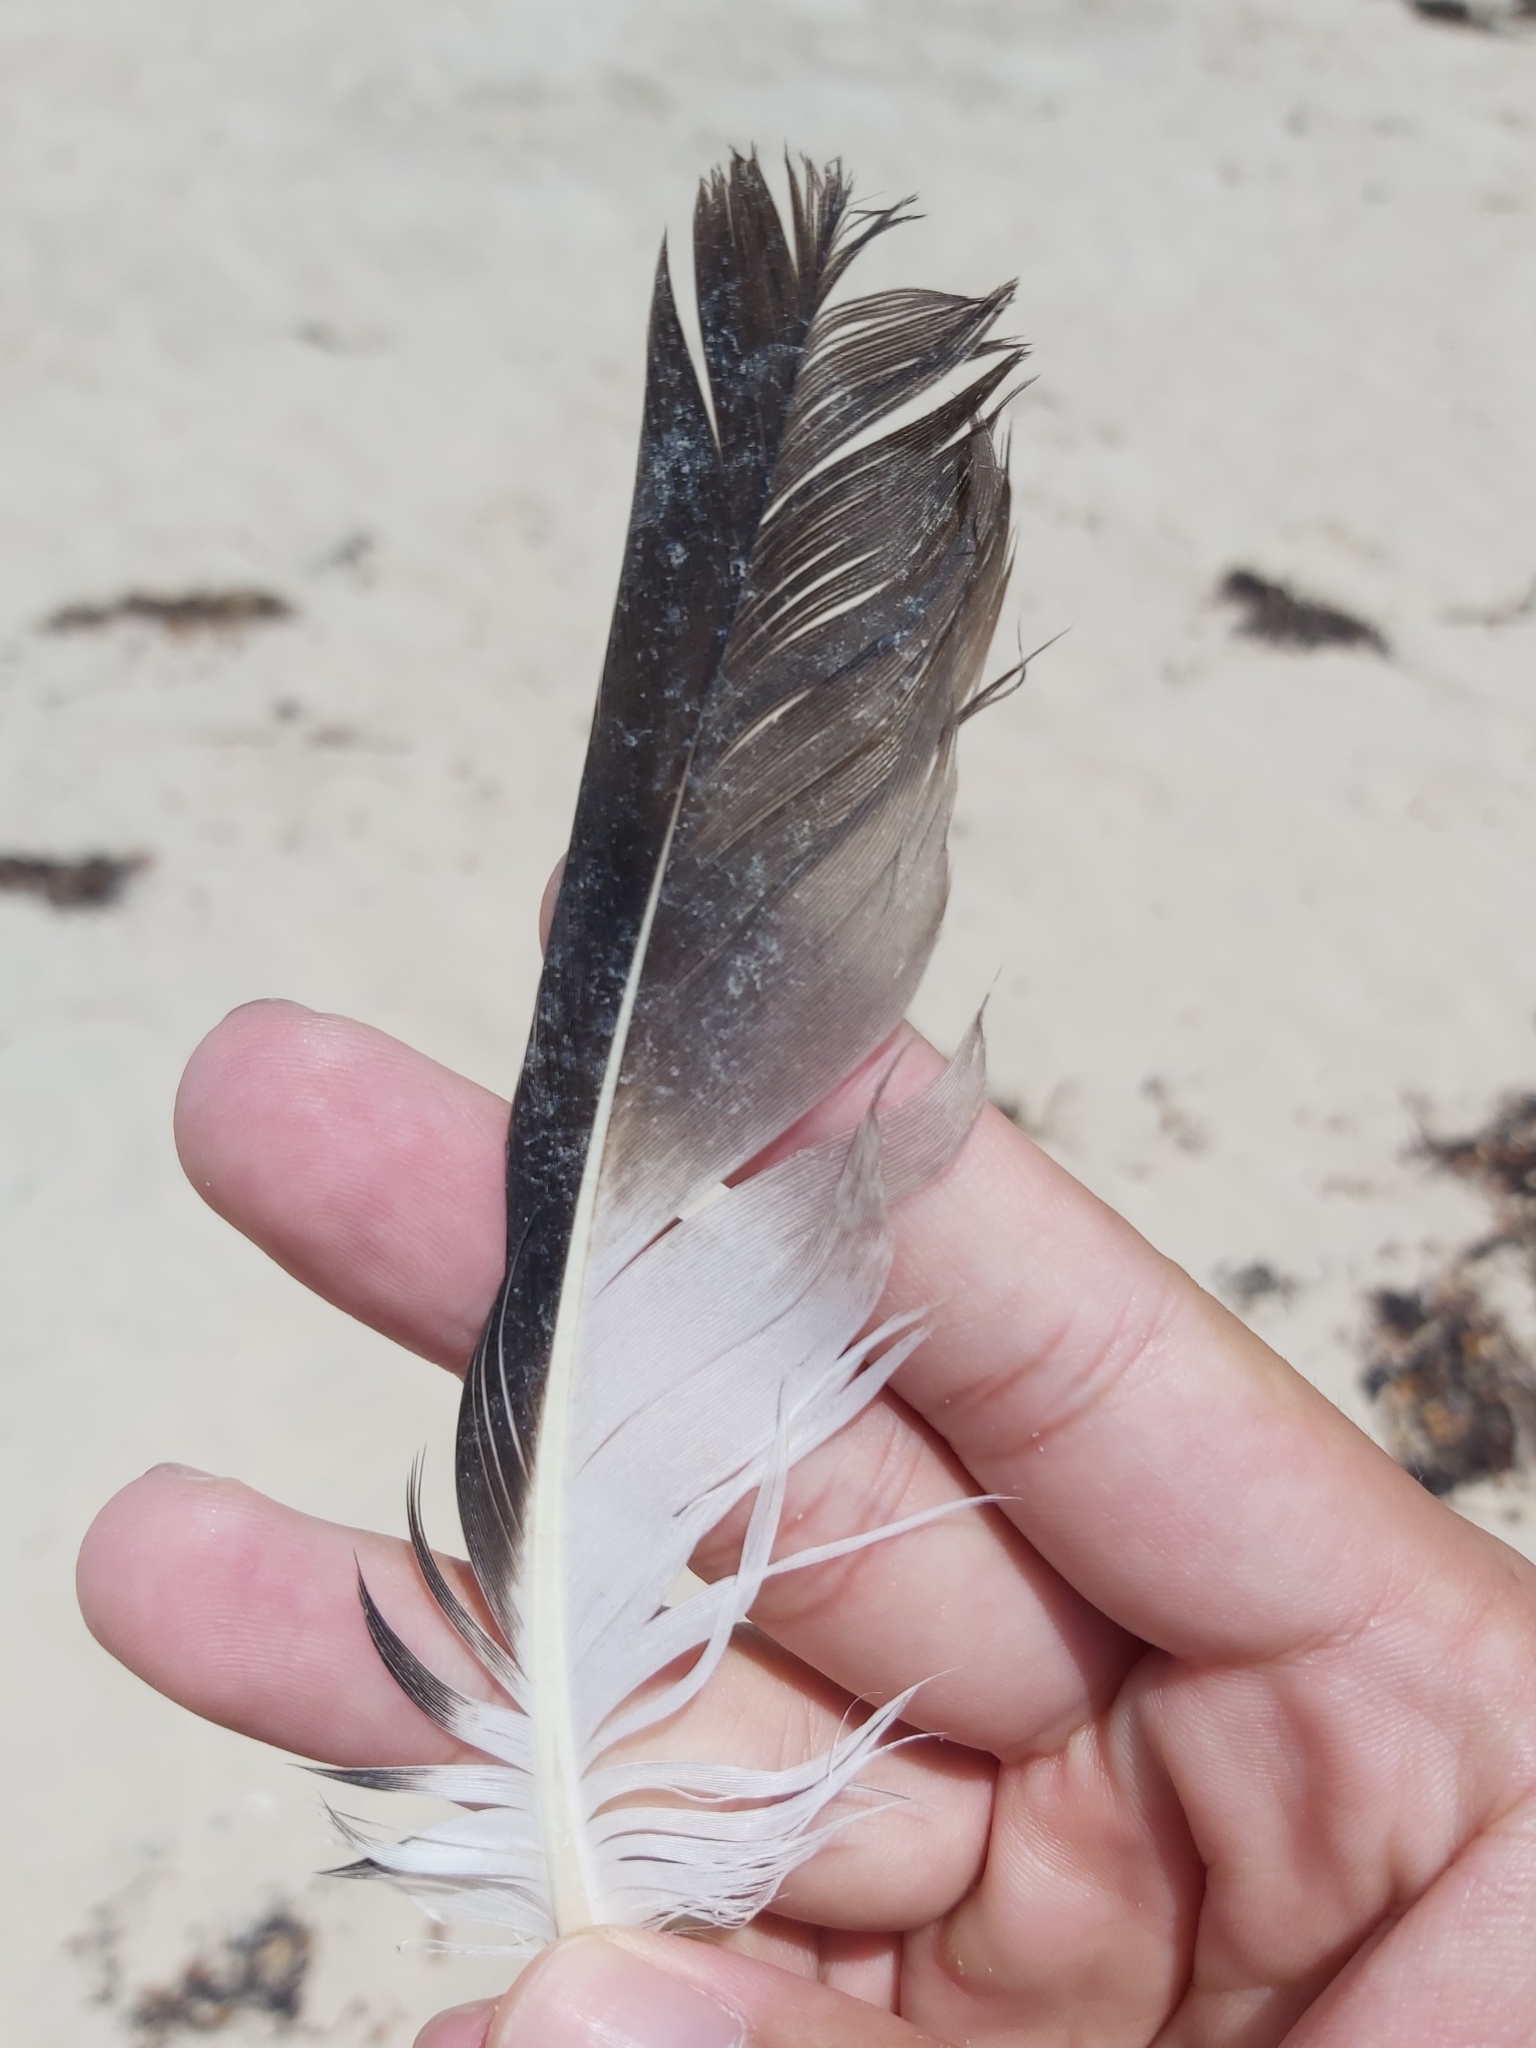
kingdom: Animalia
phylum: Chordata
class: Aves
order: Charadriiformes
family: Stercorariidae
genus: Stercorarius
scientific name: Stercorarius pomarinus
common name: Pomarine jaeger
